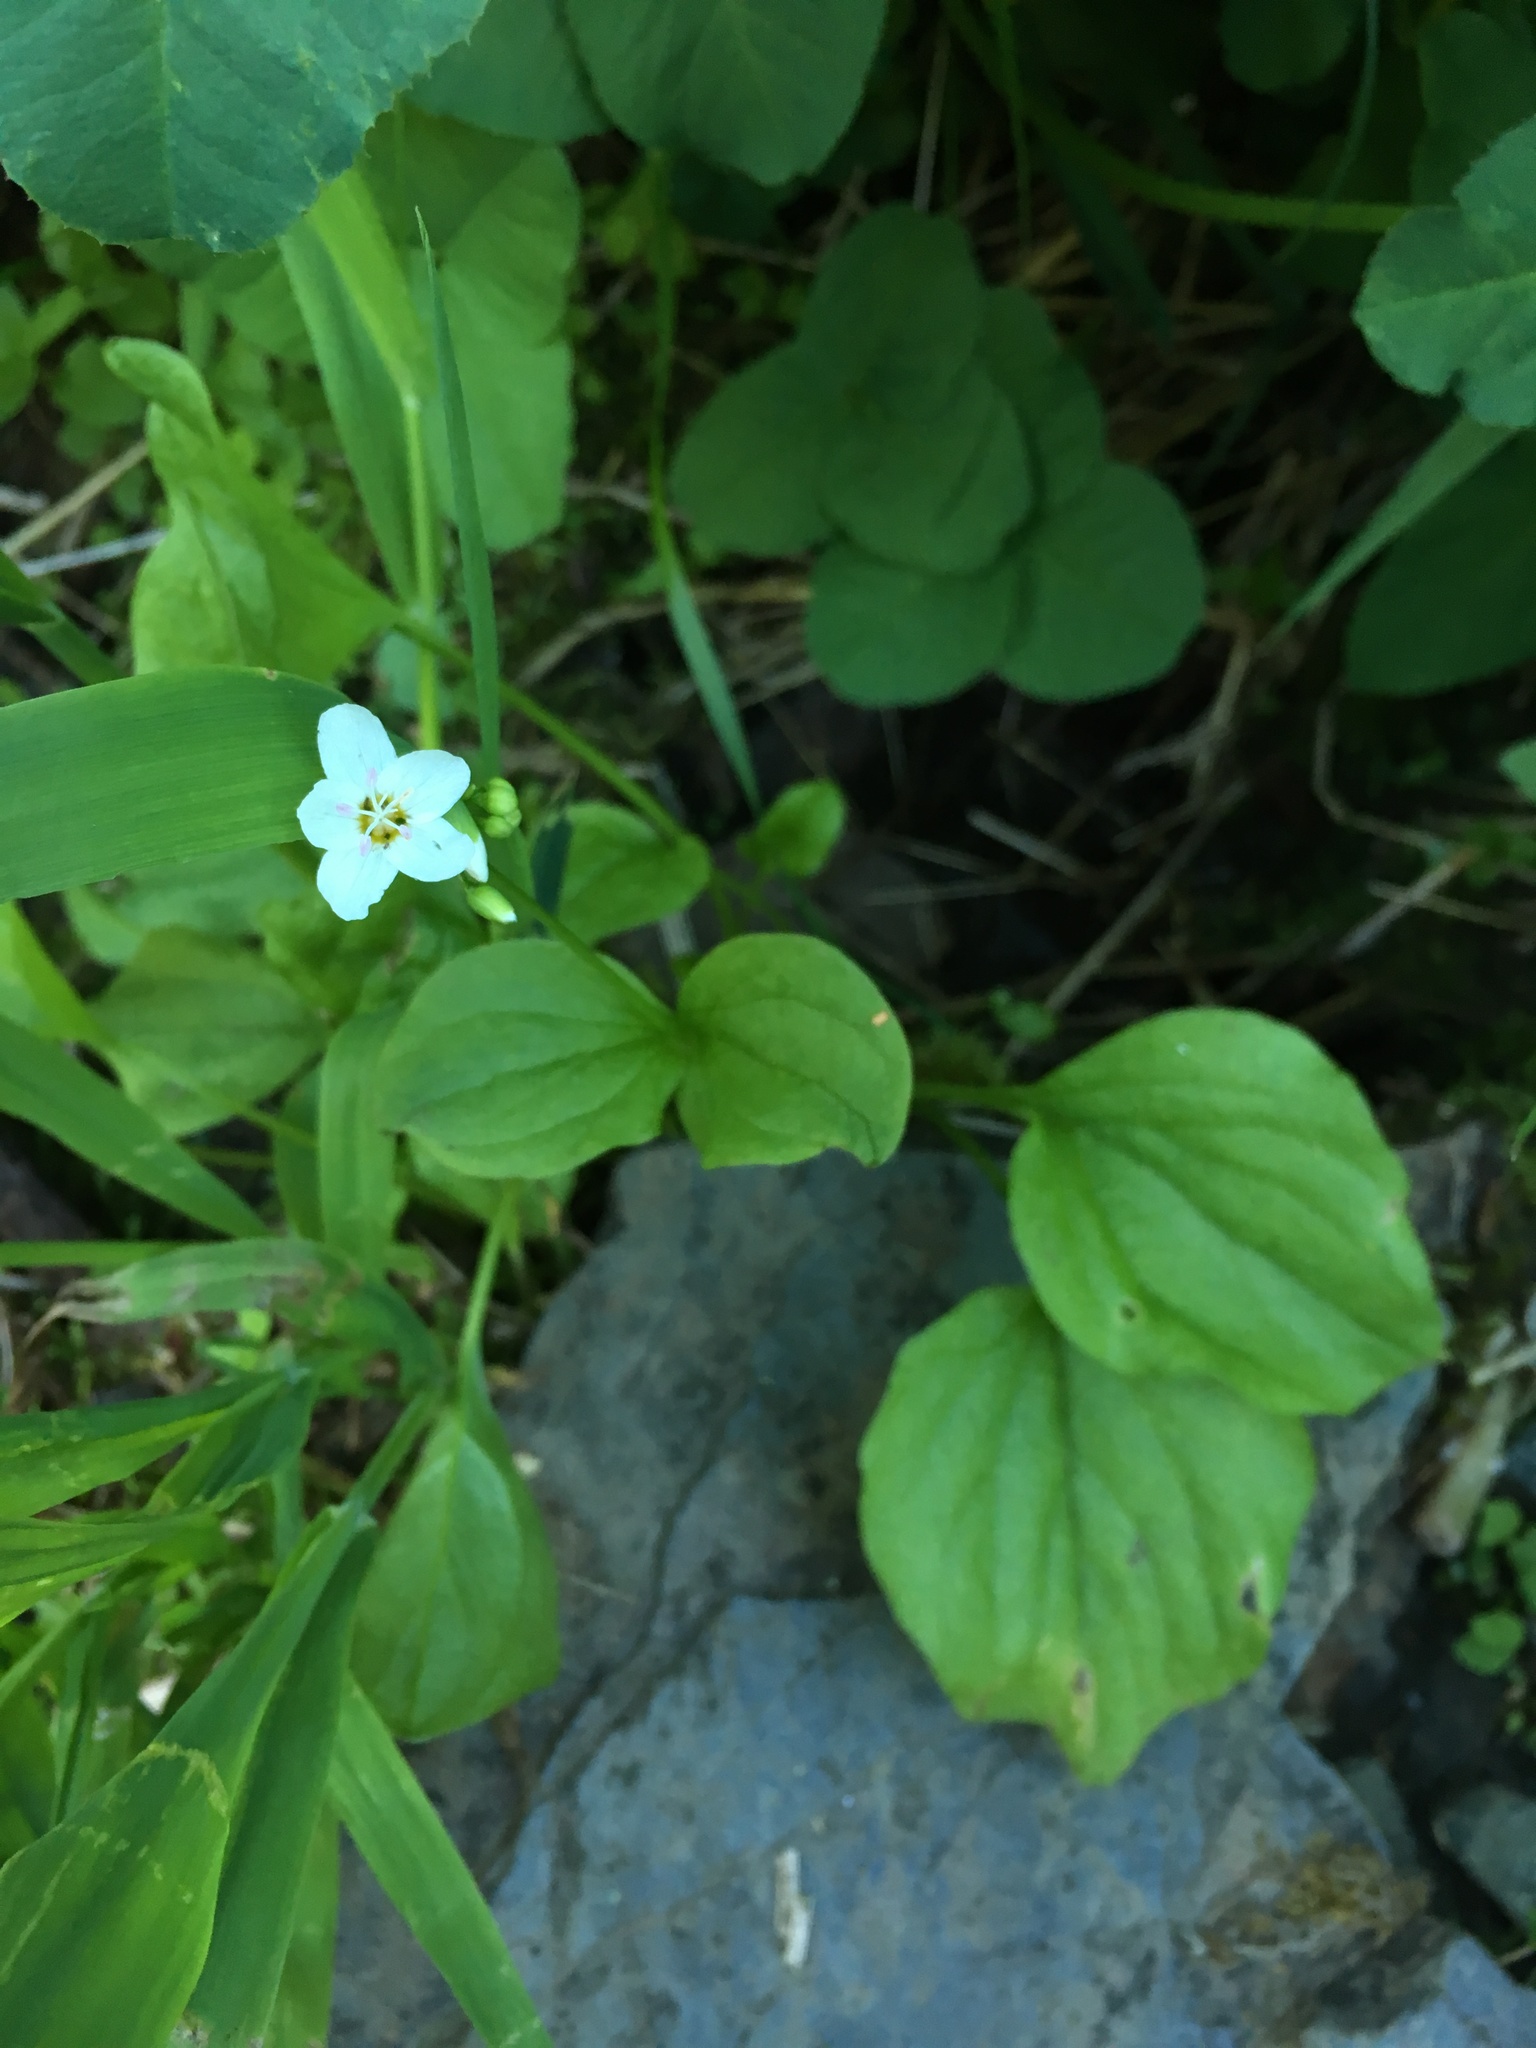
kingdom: Plantae
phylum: Tracheophyta
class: Magnoliopsida
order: Caryophyllales
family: Montiaceae
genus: Claytonia
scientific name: Claytonia cordifolia
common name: Broad-leaved spring beauty
